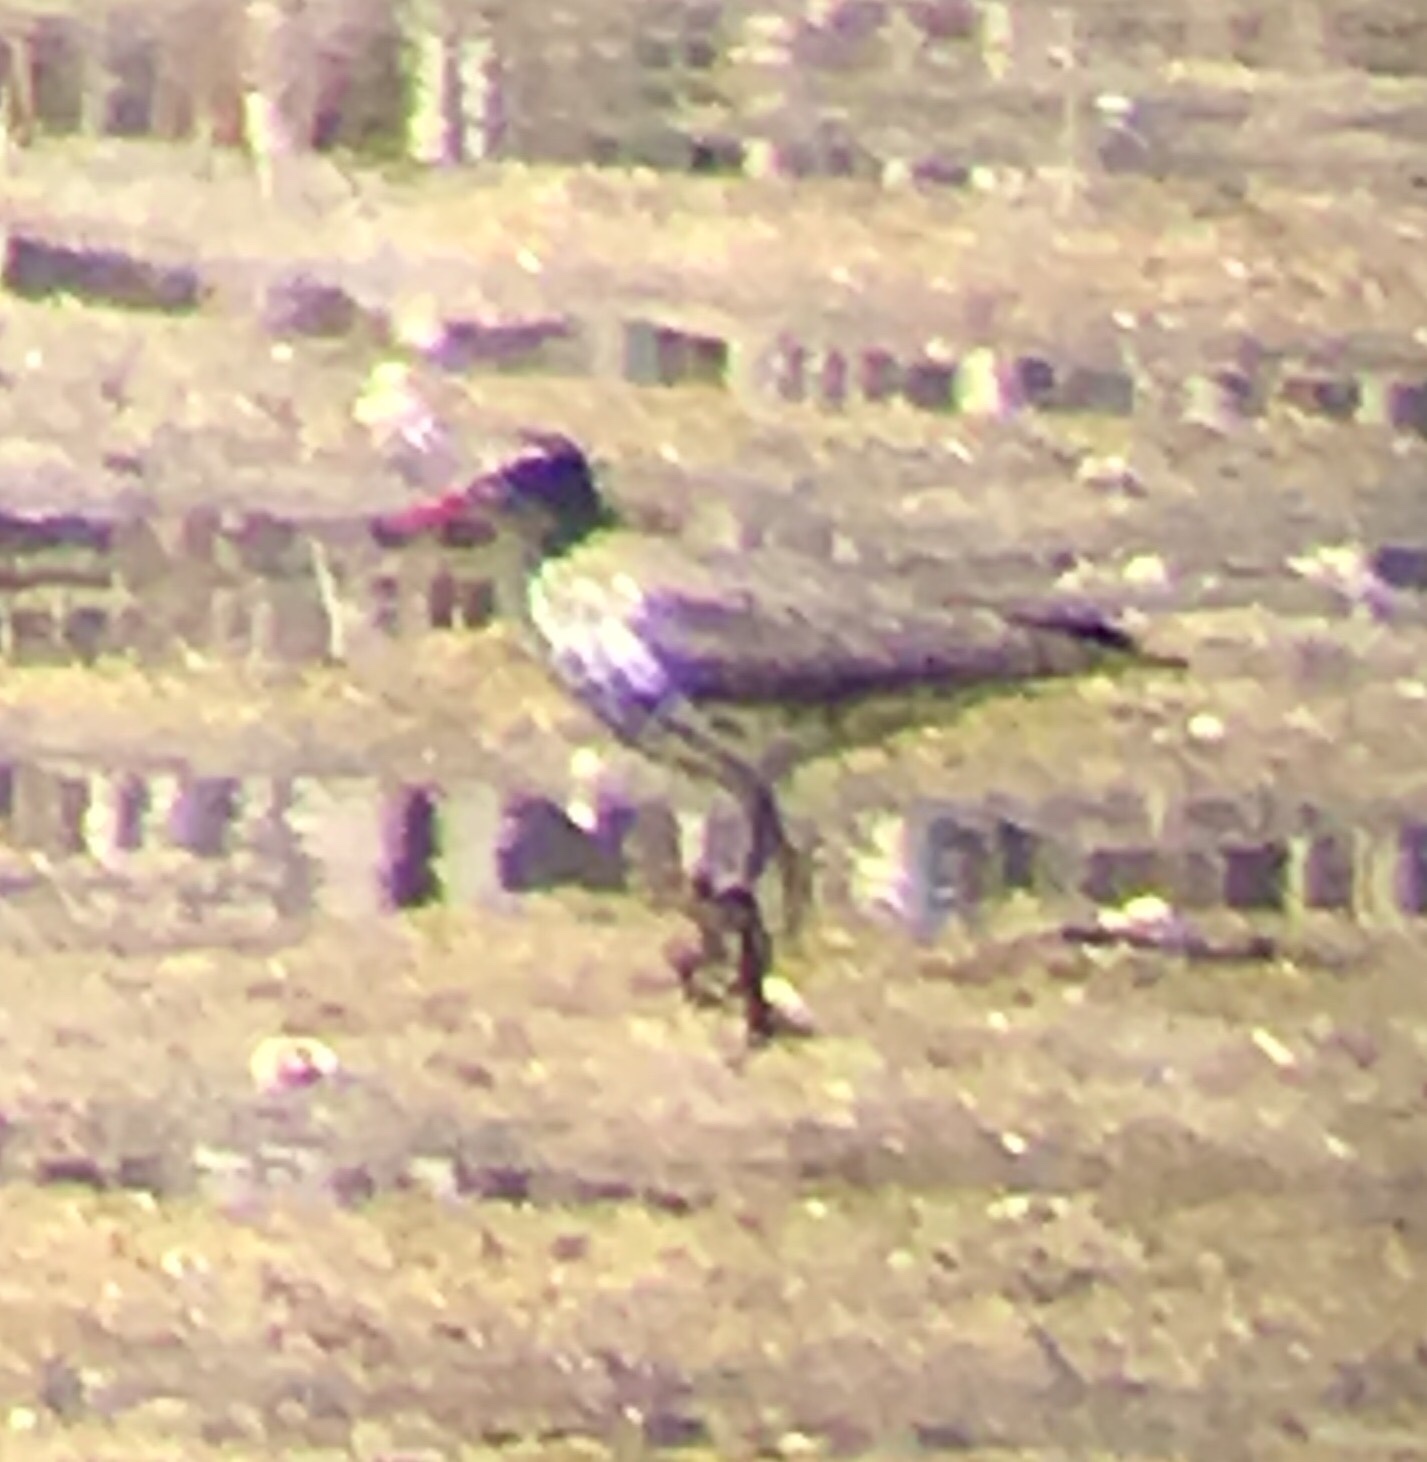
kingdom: Animalia
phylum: Chordata
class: Aves
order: Charadriiformes
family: Scolopacidae
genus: Actitis
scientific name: Actitis macularius
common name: Spotted sandpiper
